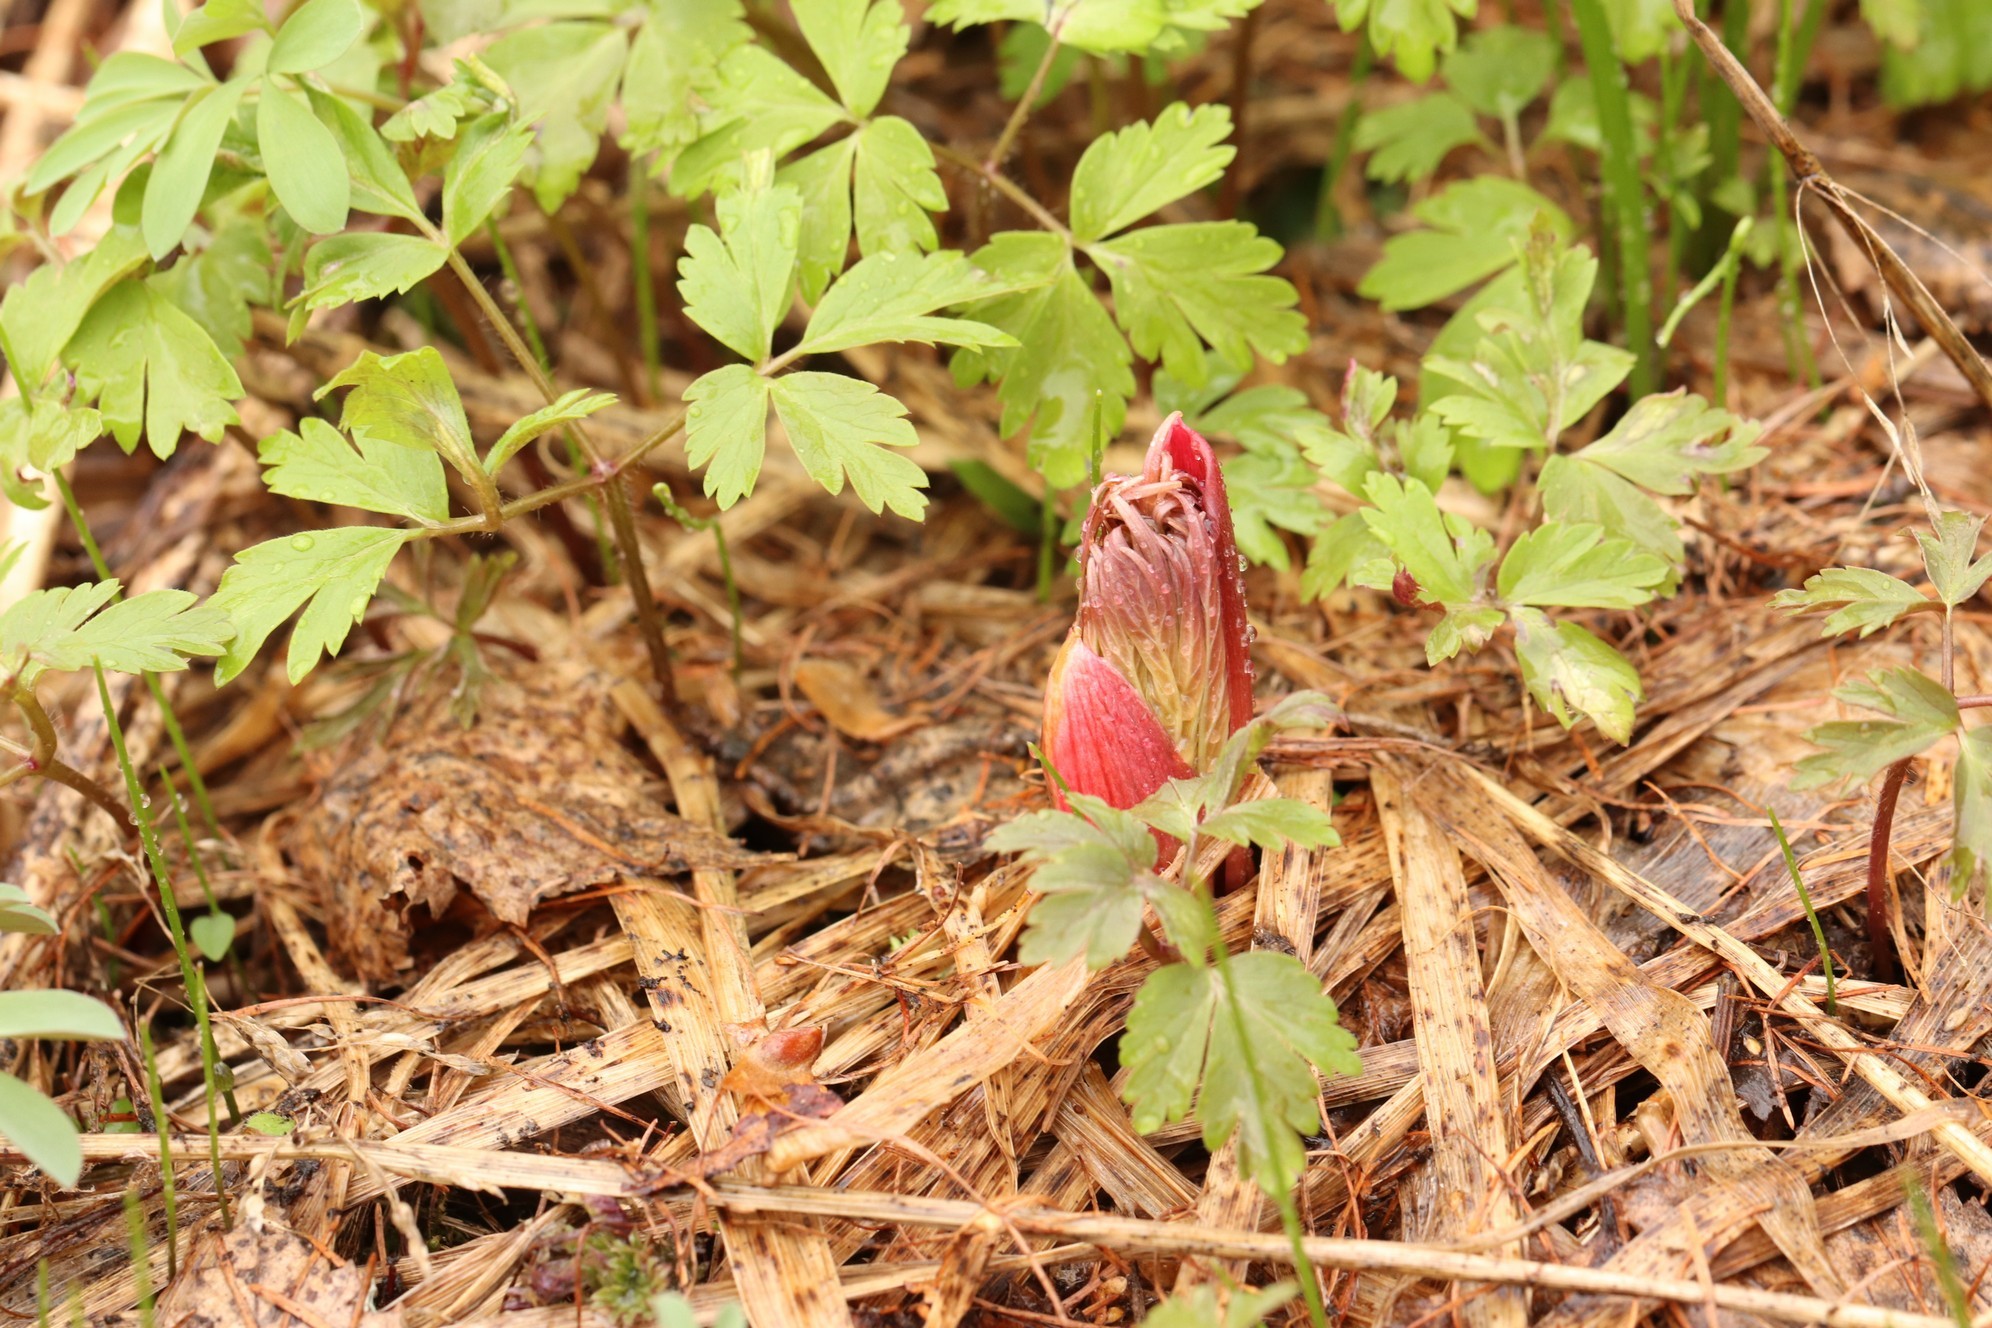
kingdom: Plantae
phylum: Tracheophyta
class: Magnoliopsida
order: Saxifragales
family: Paeoniaceae
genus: Paeonia
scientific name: Paeonia anomala
